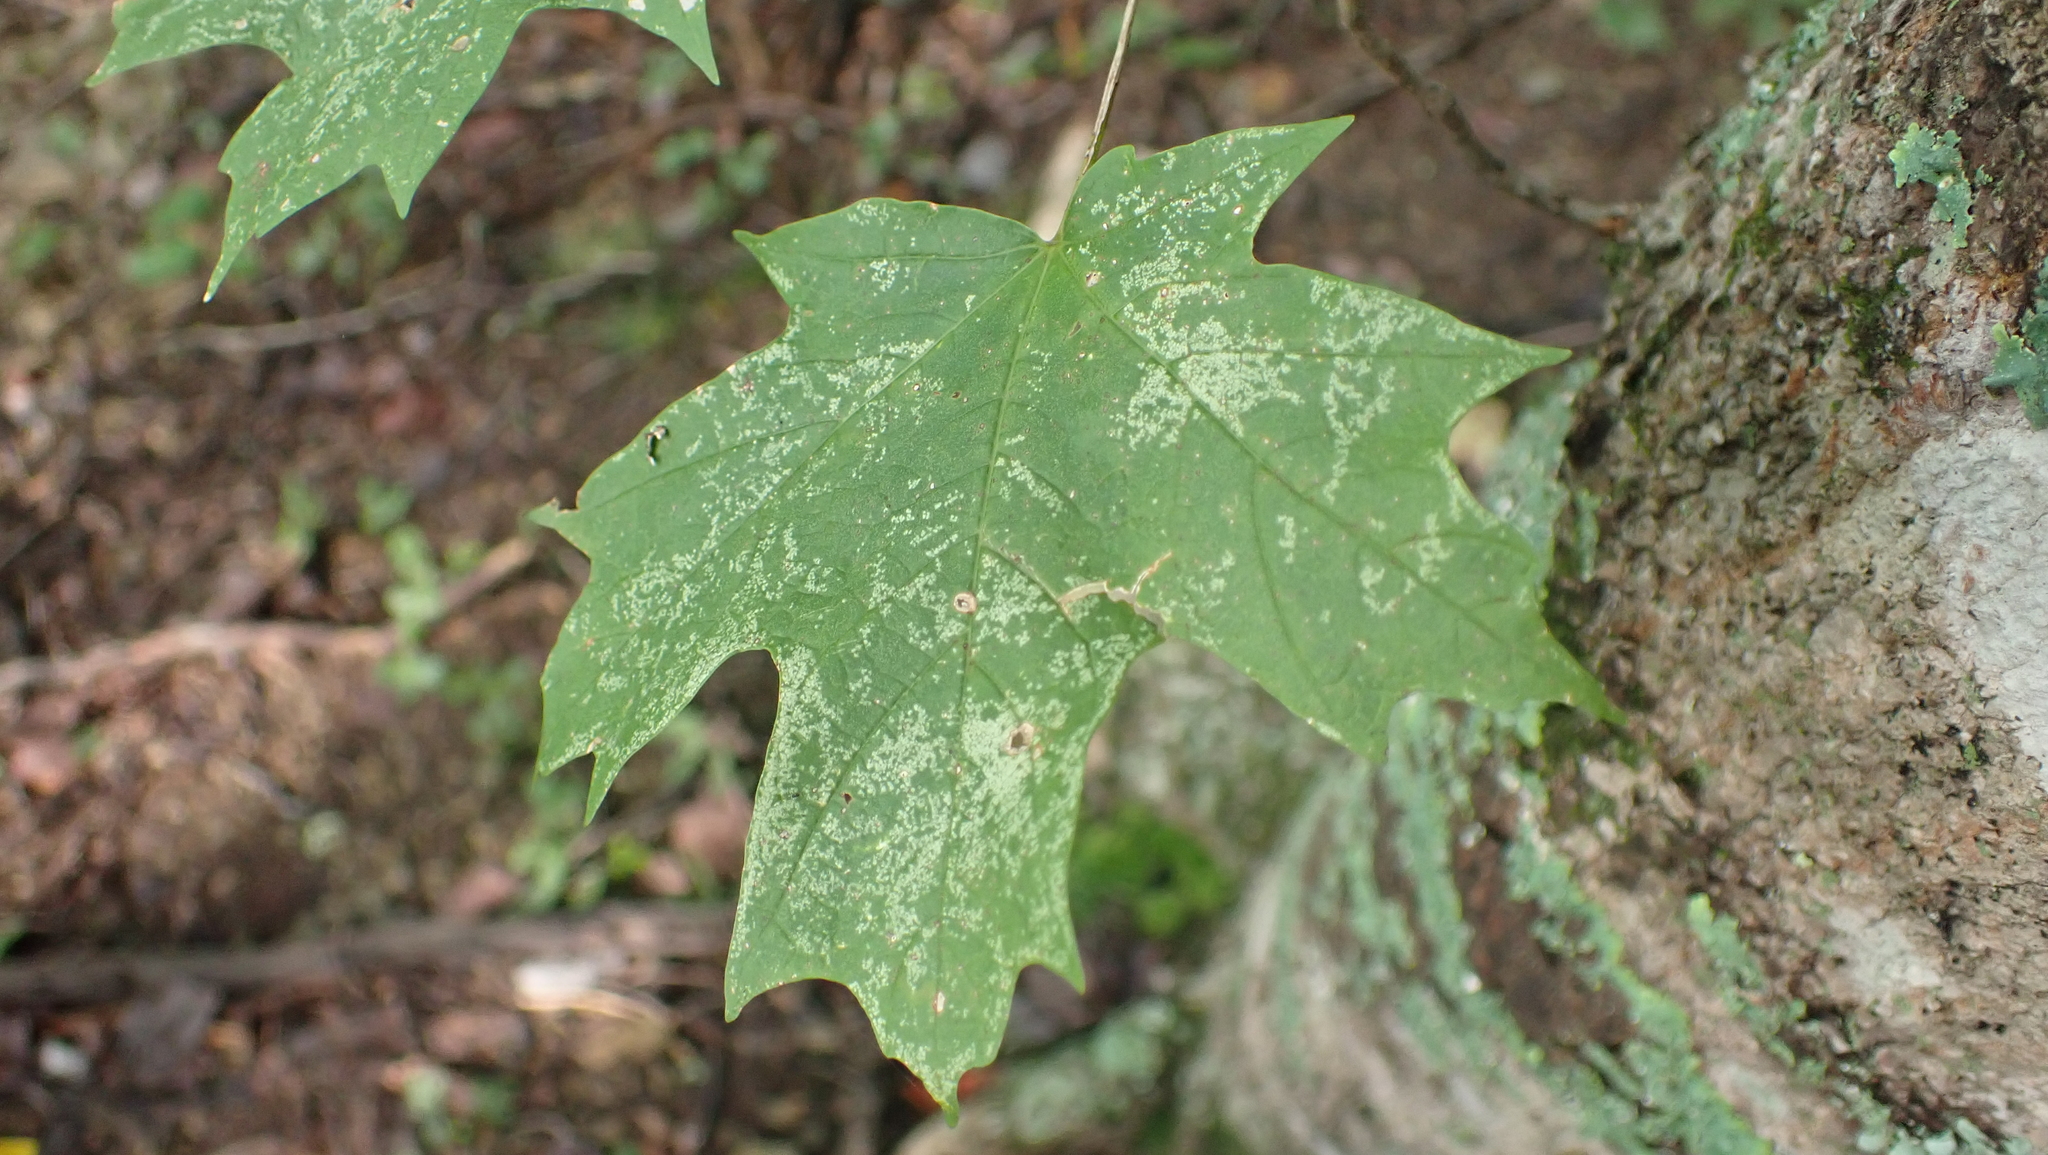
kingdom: Plantae
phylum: Tracheophyta
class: Magnoliopsida
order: Sapindales
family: Sapindaceae
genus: Acer
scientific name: Acer saccharum
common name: Sugar maple
